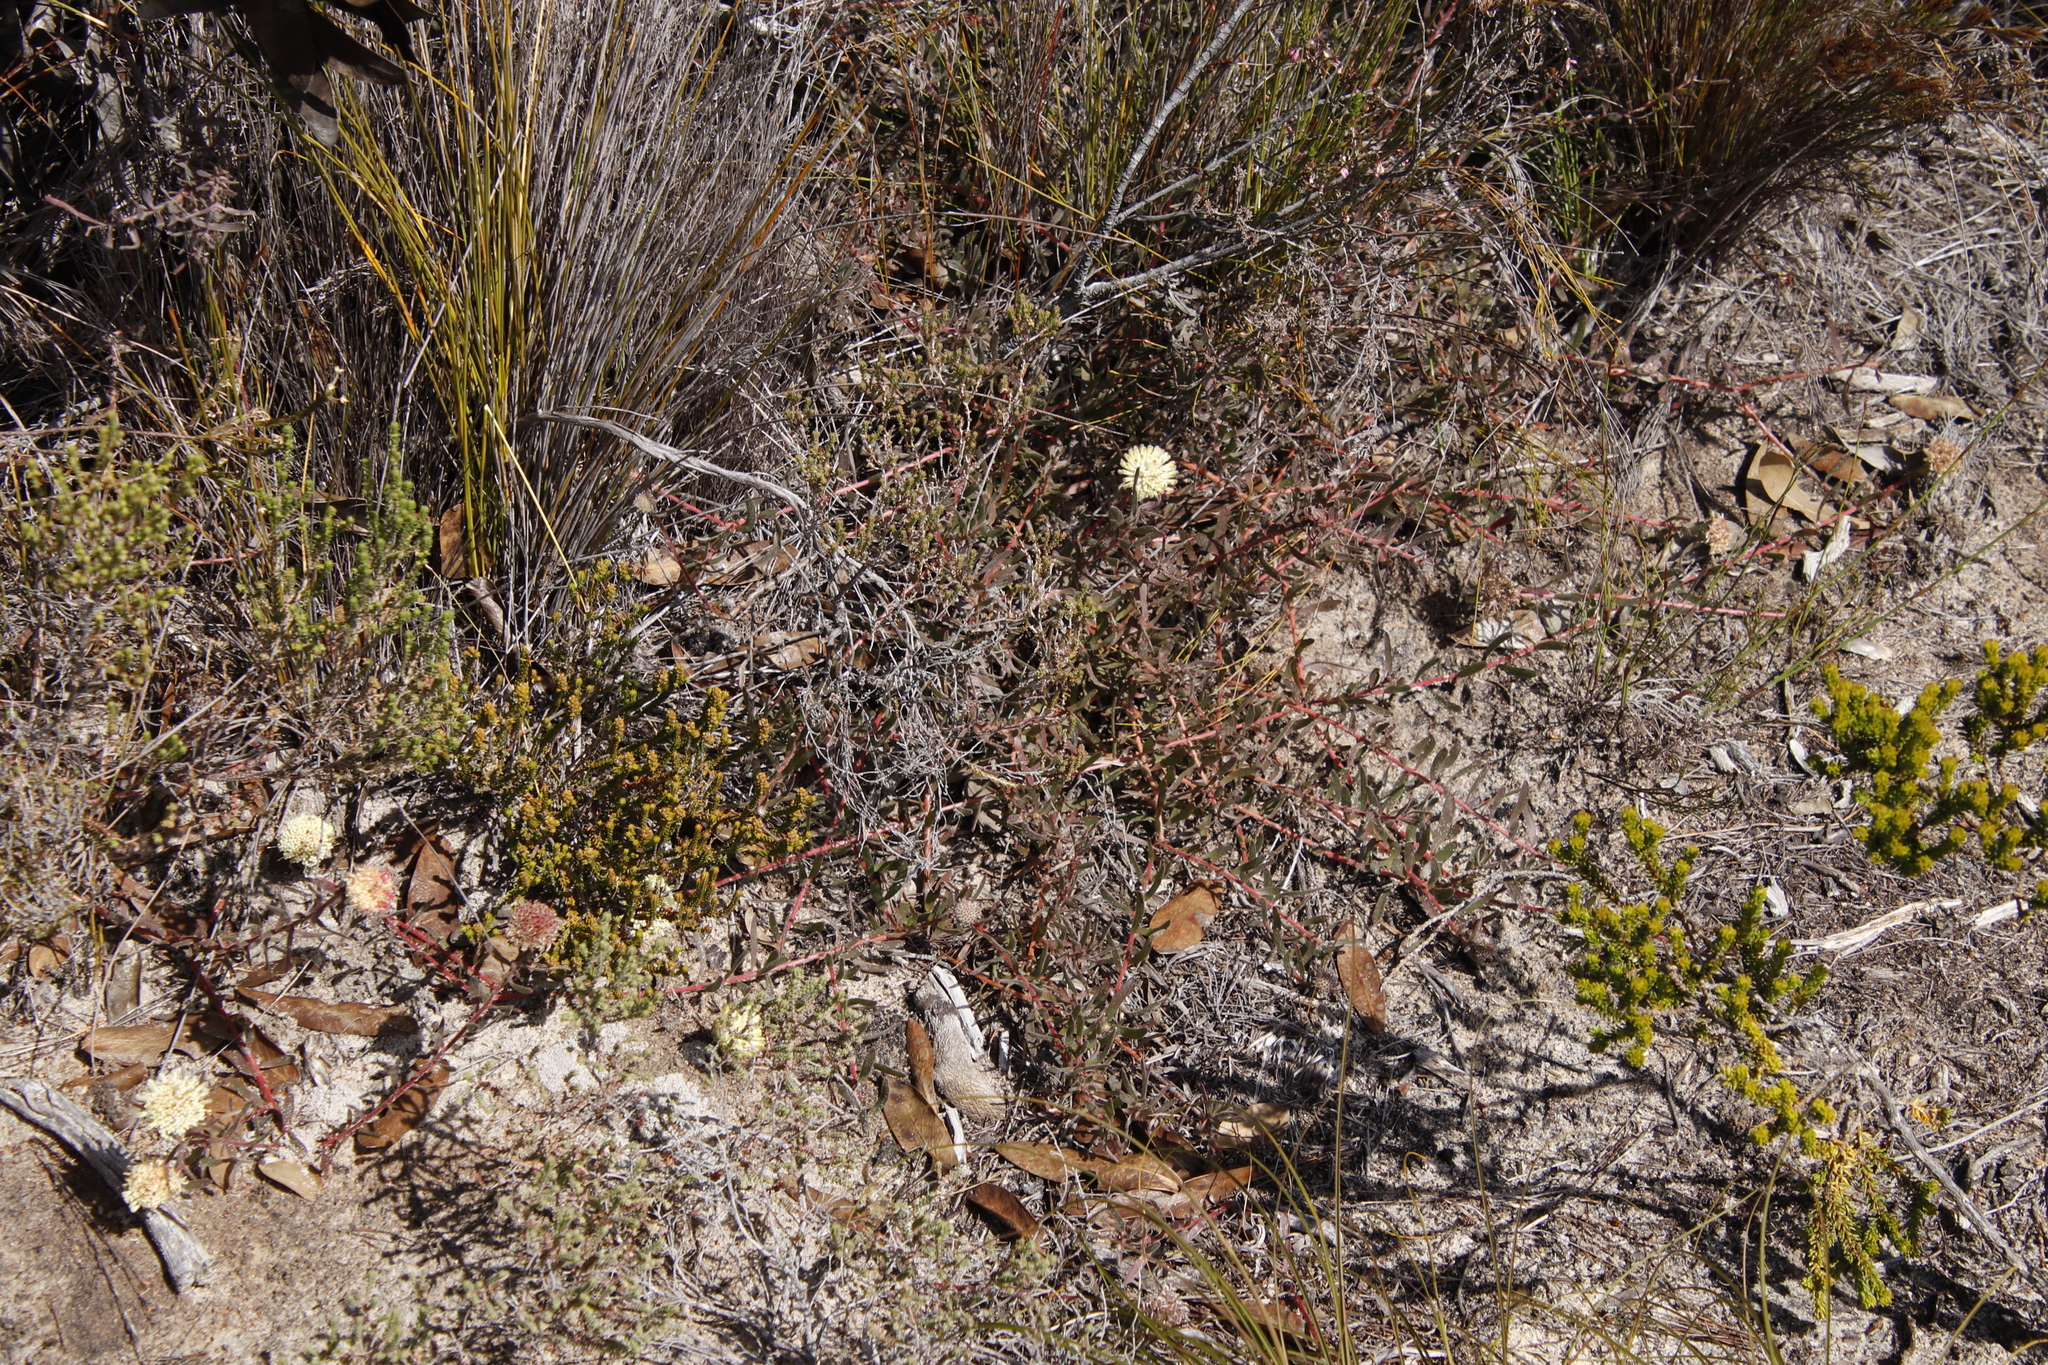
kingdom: Plantae
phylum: Tracheophyta
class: Magnoliopsida
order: Proteales
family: Proteaceae
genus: Leucospermum
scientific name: Leucospermum pedunculatum
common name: White-trailing pincushion
